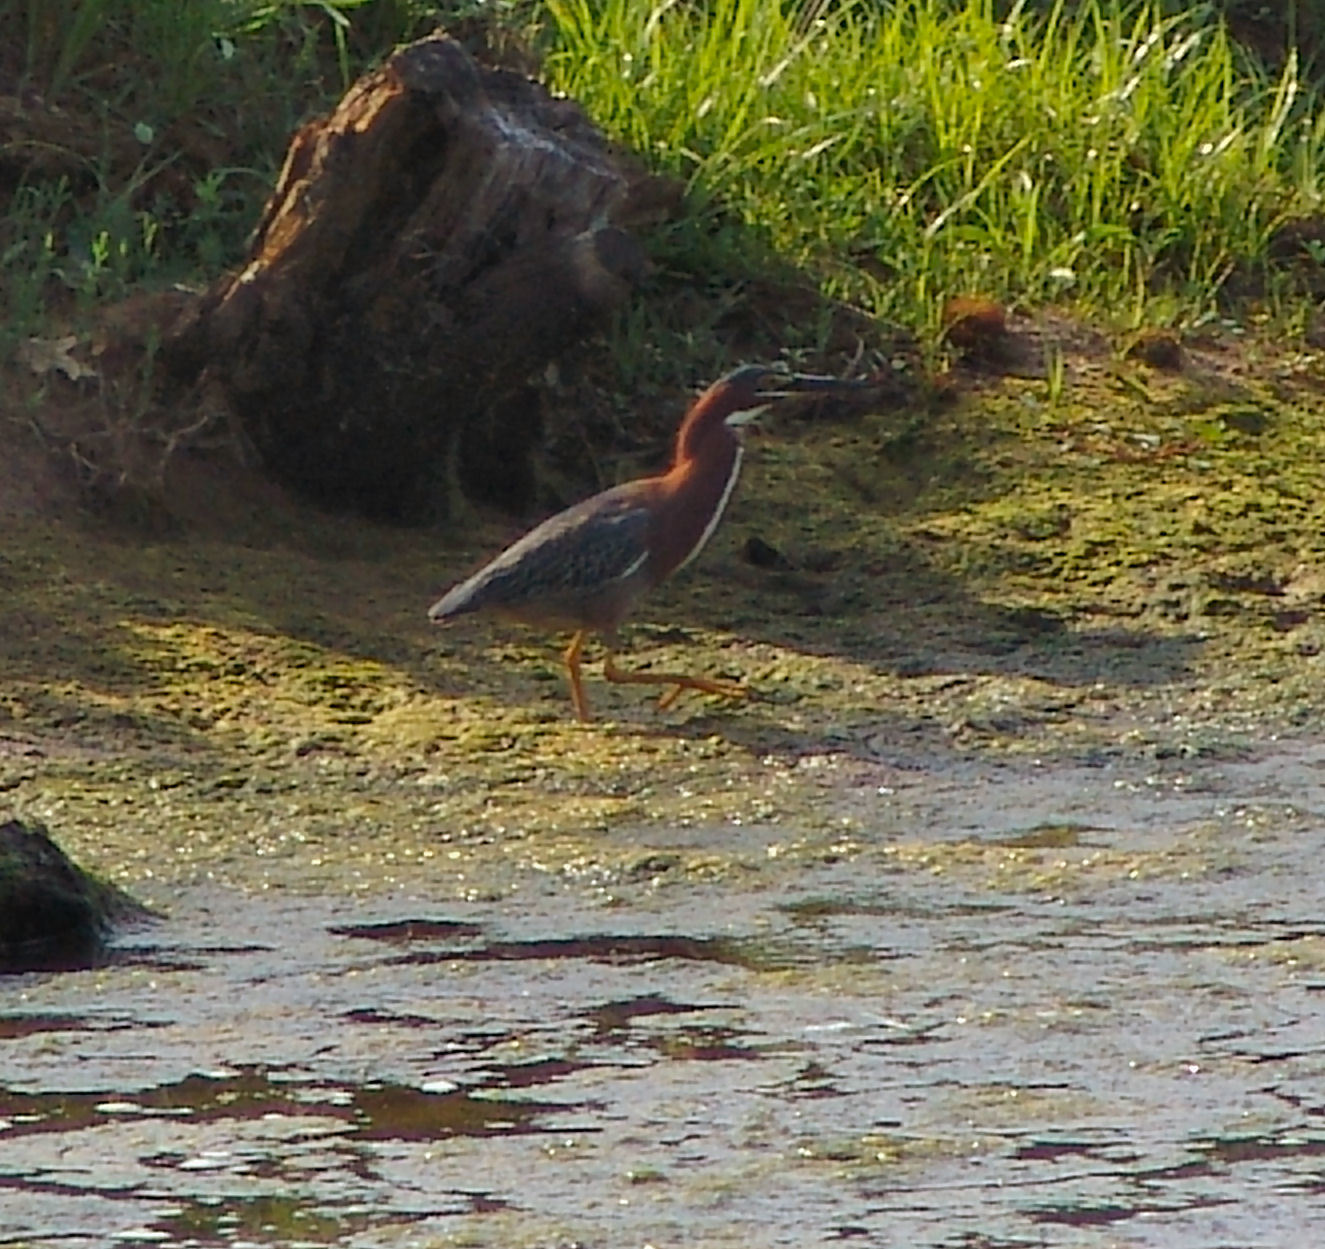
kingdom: Animalia
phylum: Chordata
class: Aves
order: Pelecaniformes
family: Ardeidae
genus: Butorides
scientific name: Butorides virescens
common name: Green heron
